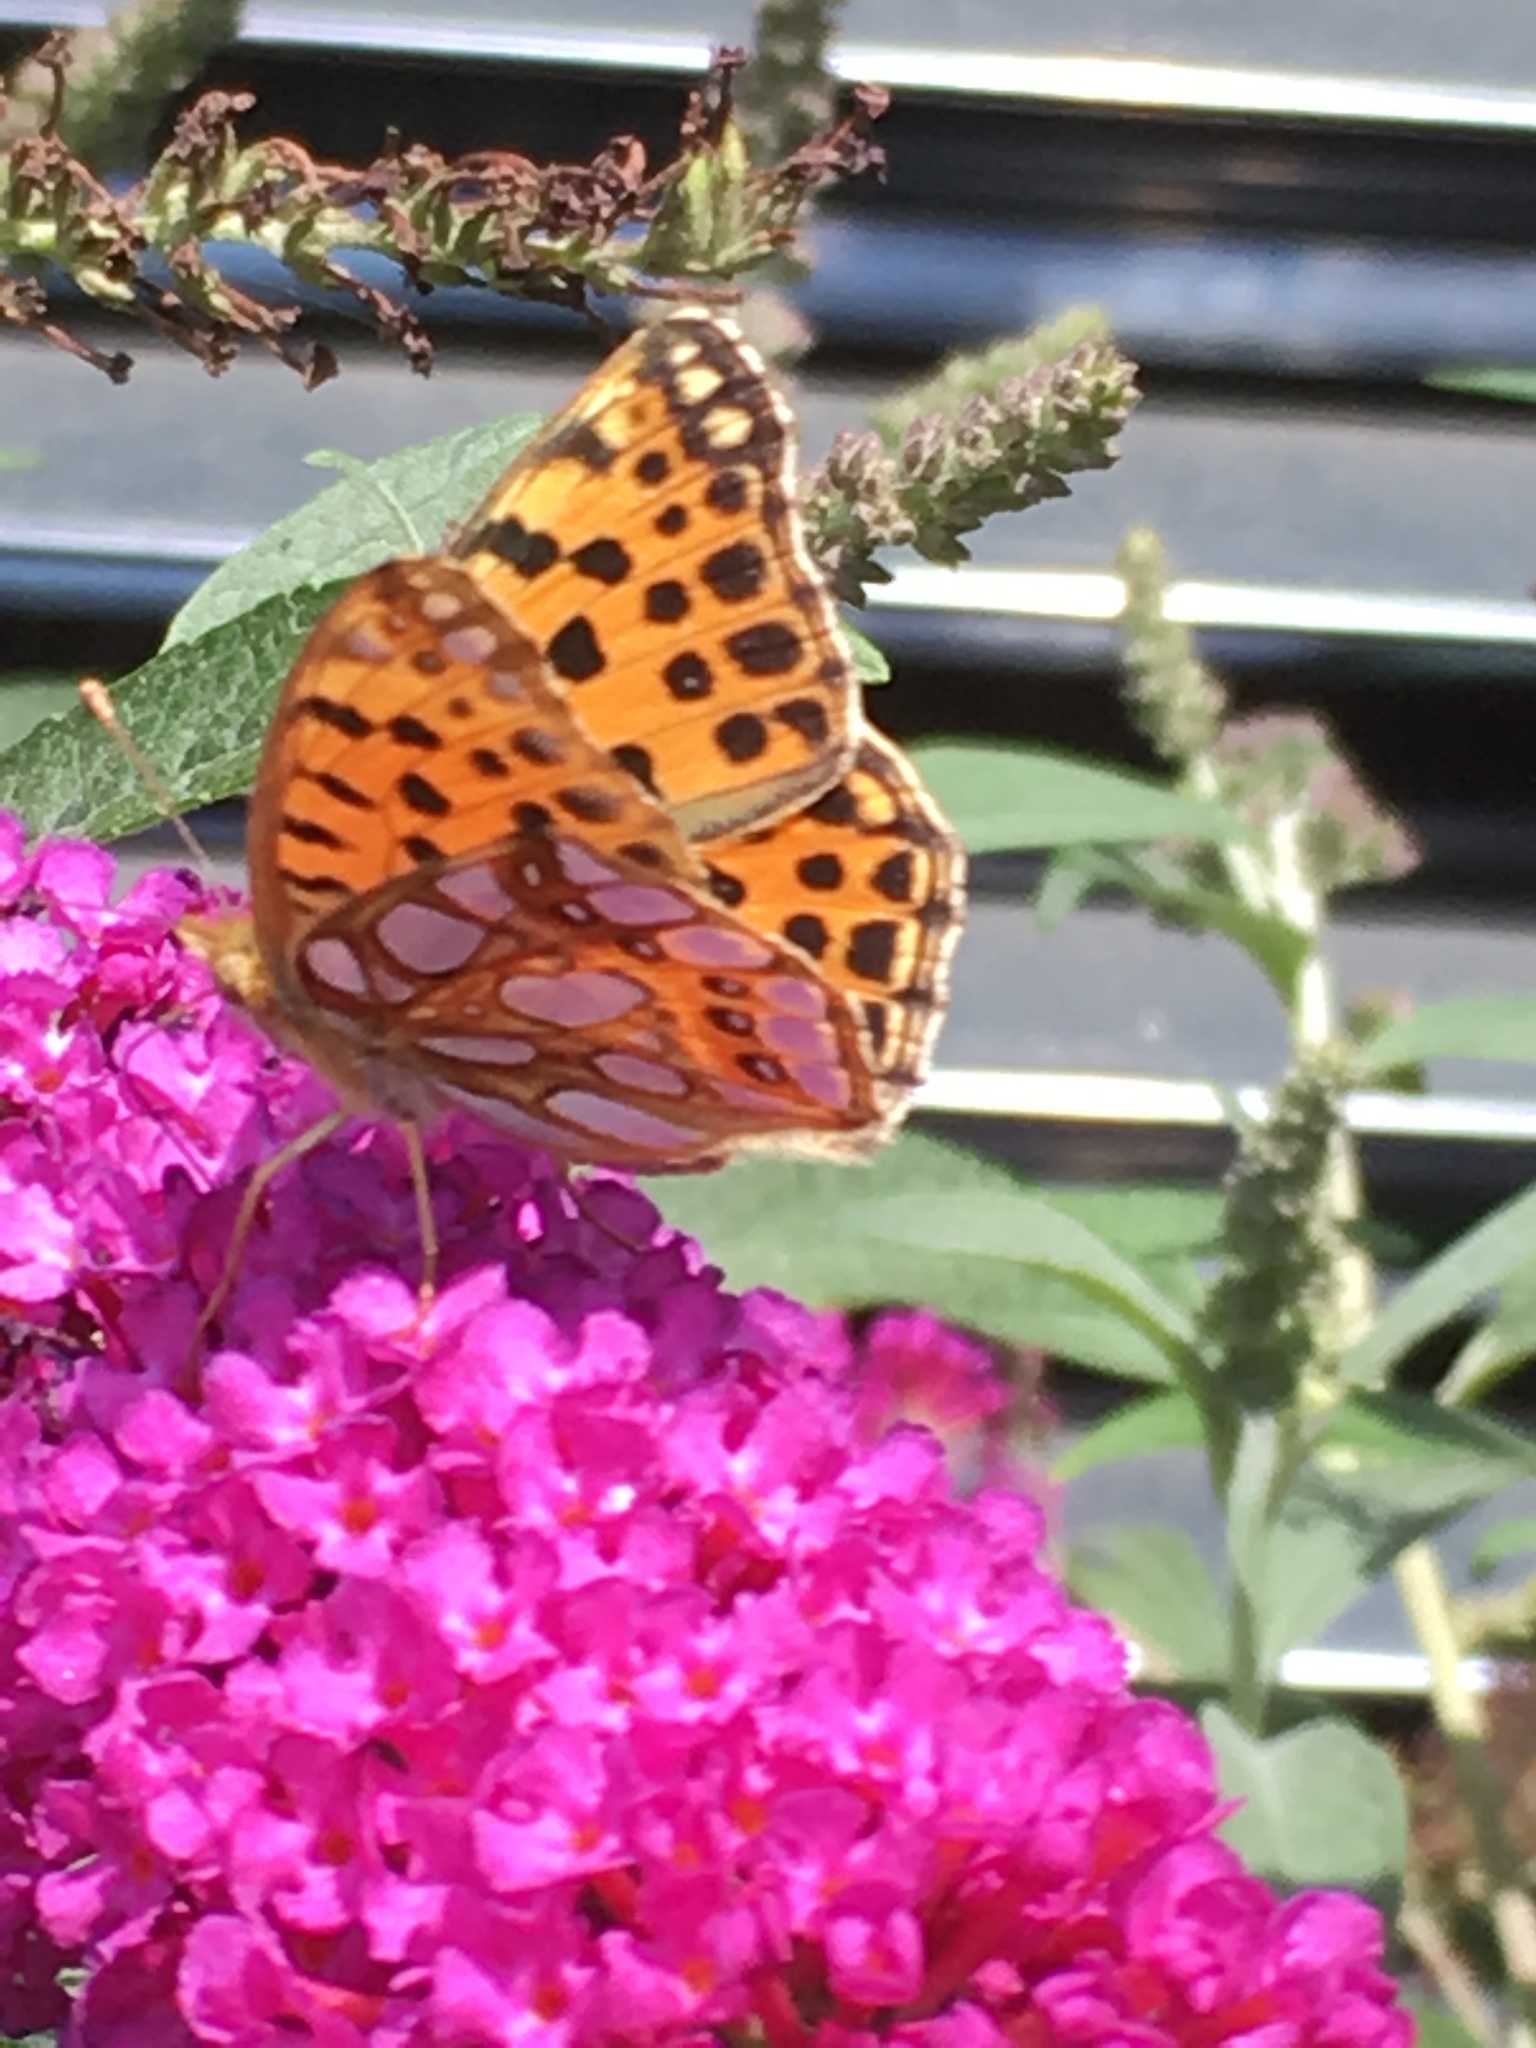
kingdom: Animalia
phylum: Arthropoda
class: Insecta
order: Lepidoptera
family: Nymphalidae
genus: Issoria
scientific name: Issoria lathonia
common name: Queen of spain fritillary
